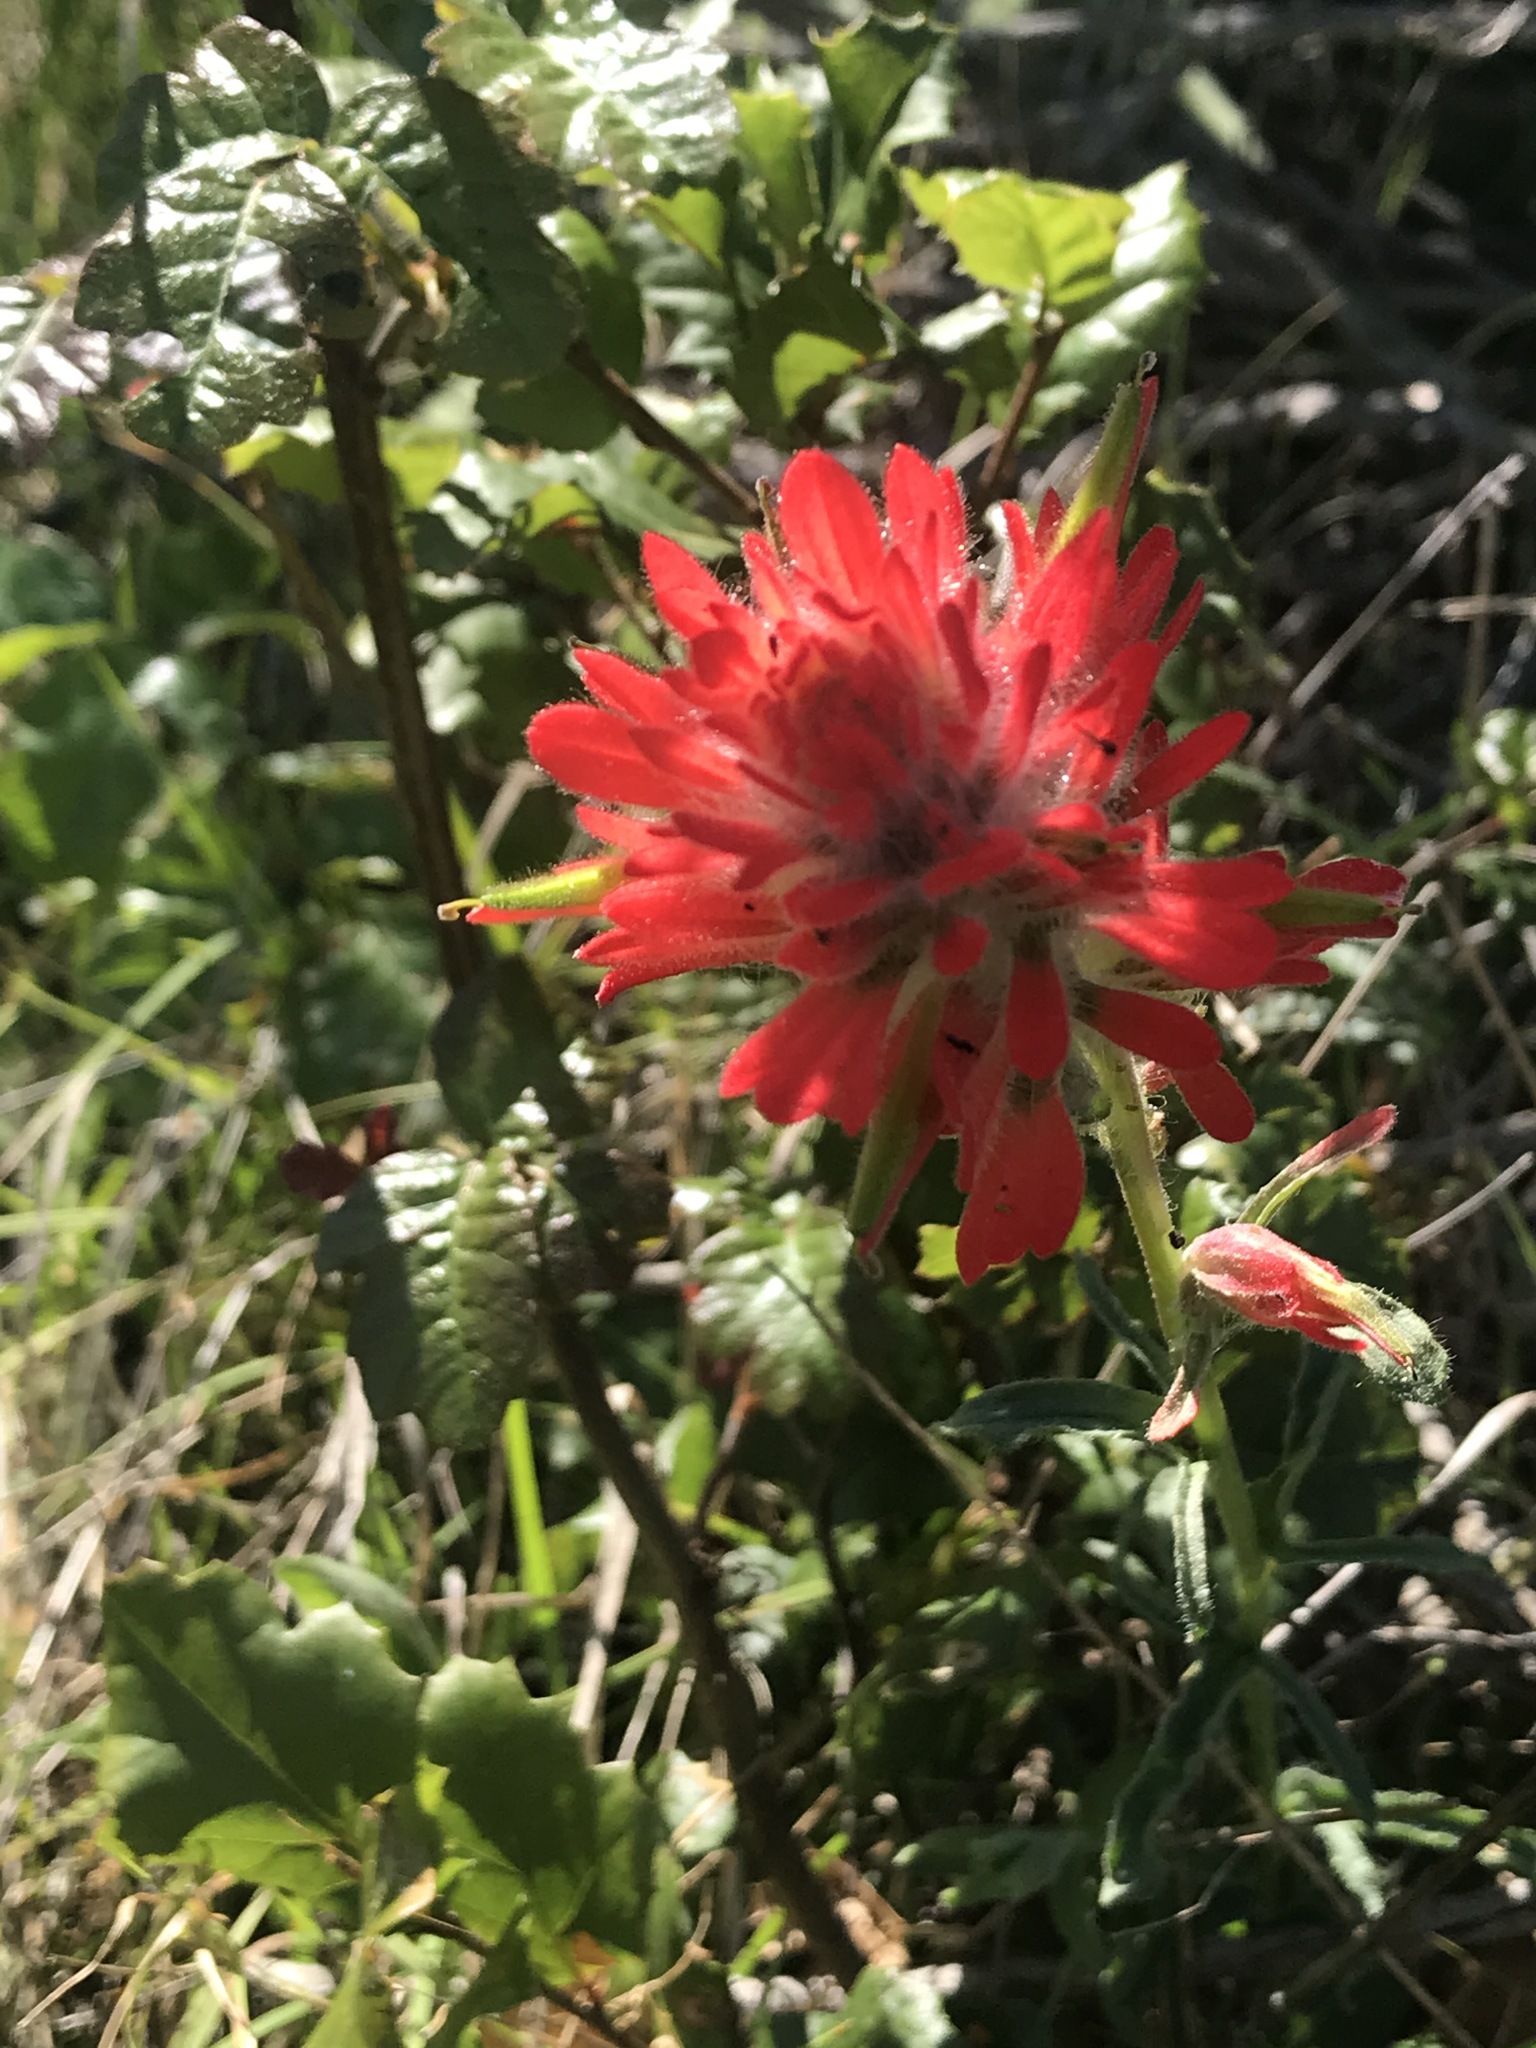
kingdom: Plantae
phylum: Tracheophyta
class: Magnoliopsida
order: Lamiales
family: Orobanchaceae
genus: Castilleja
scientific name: Castilleja affinis
